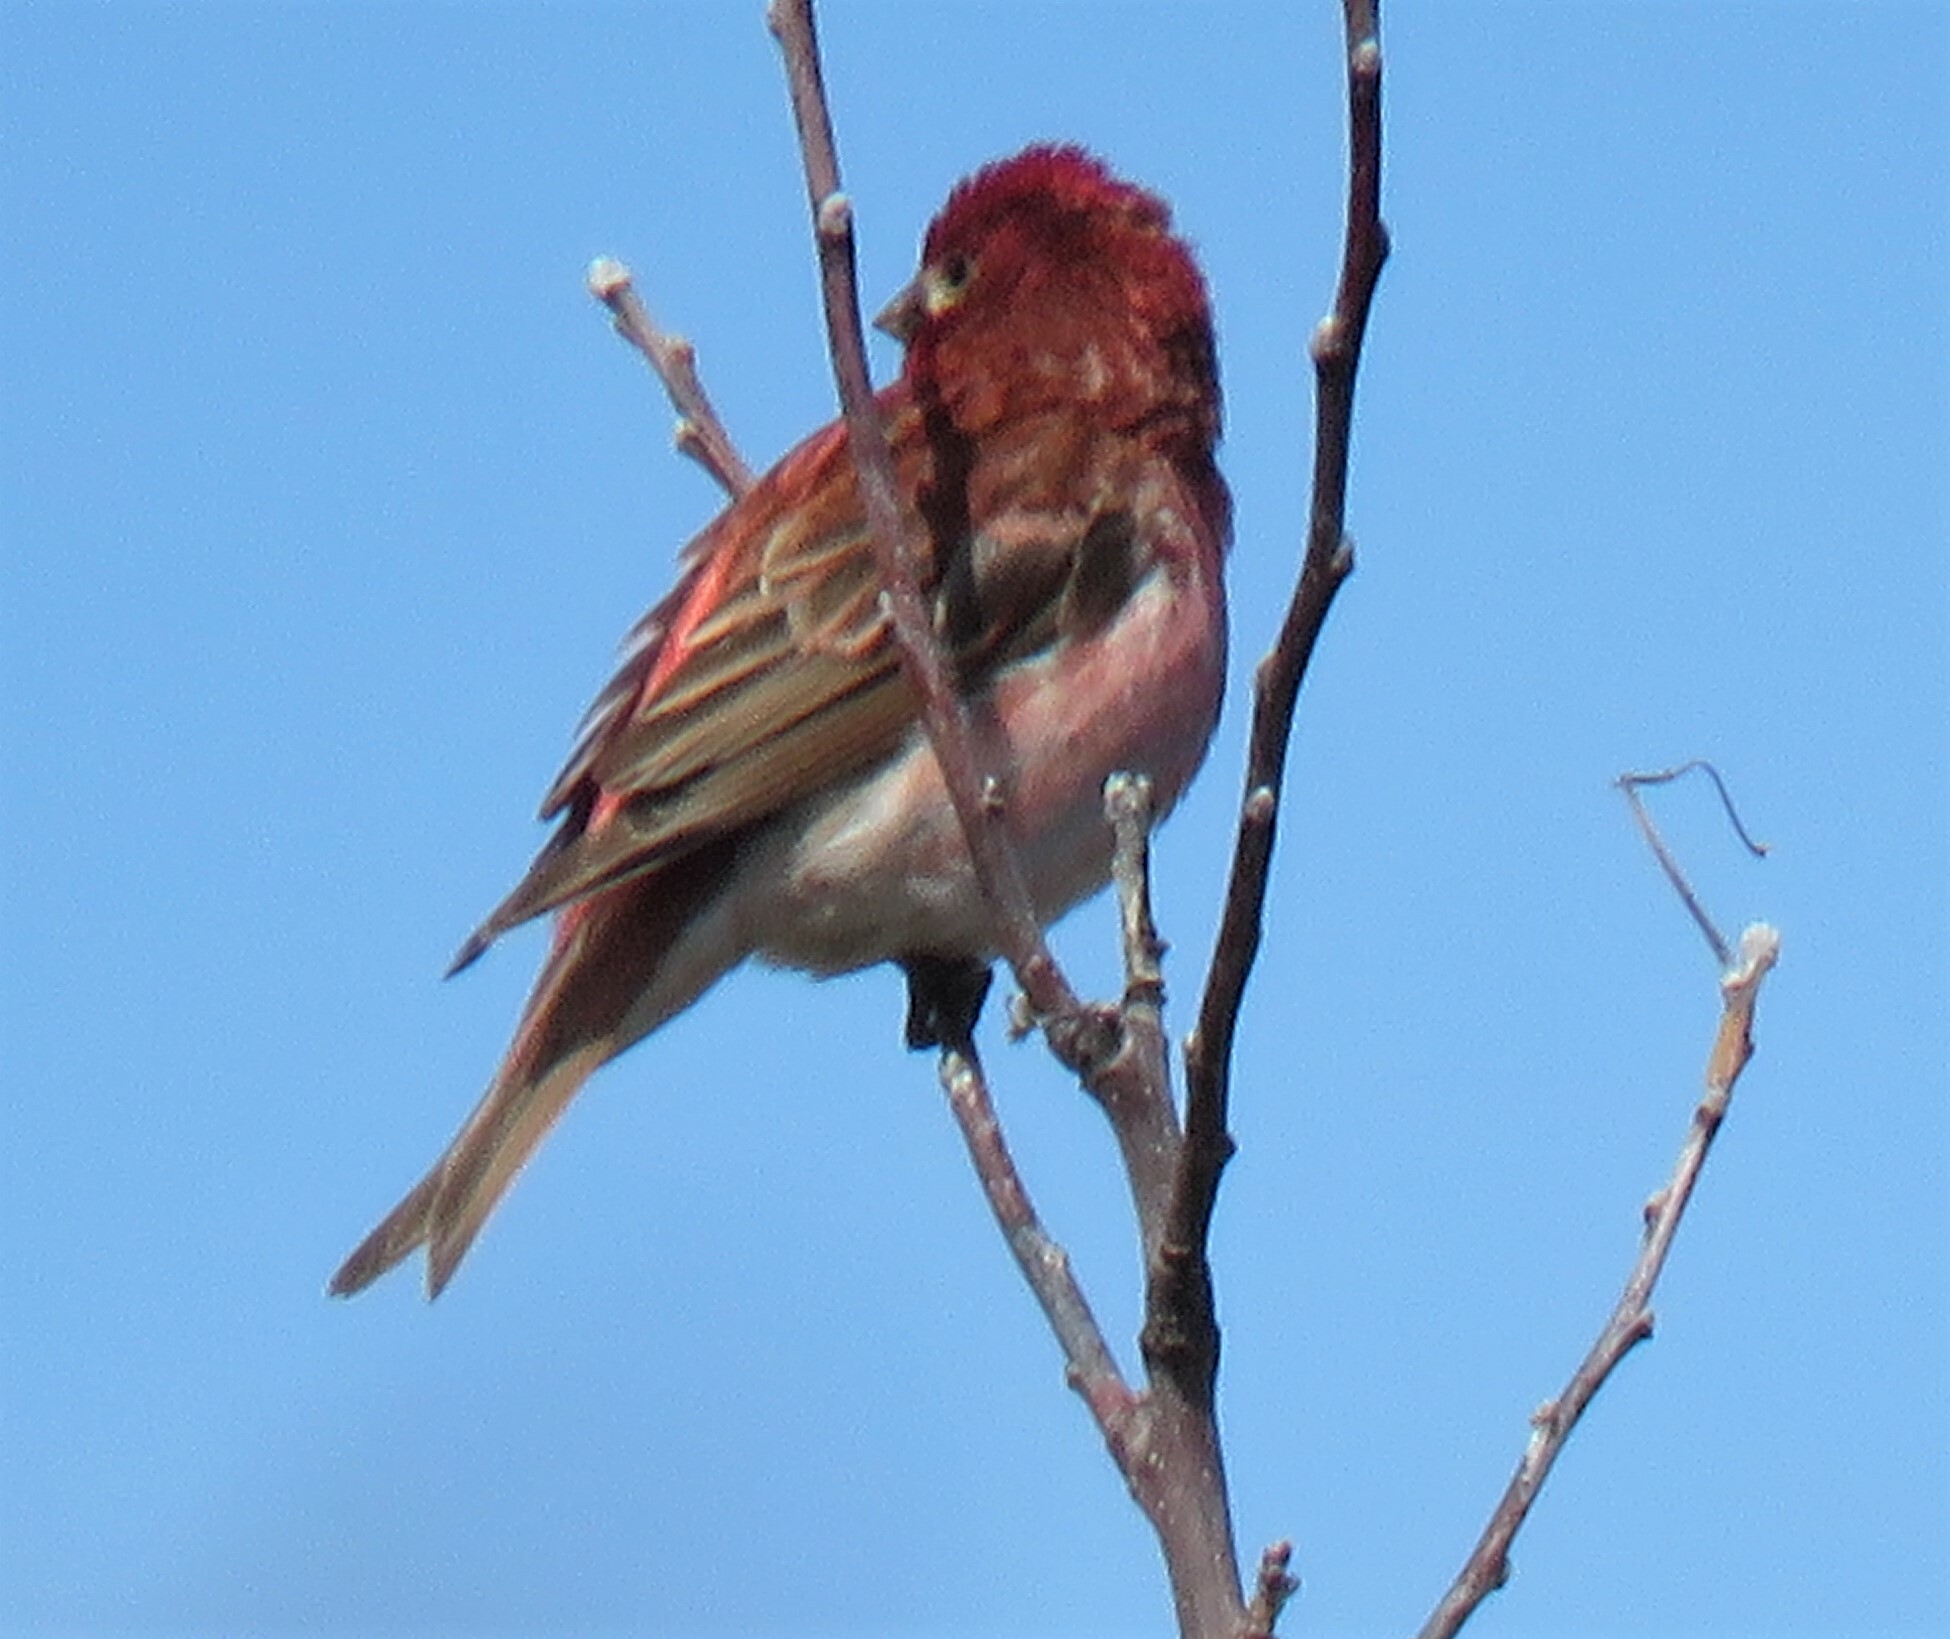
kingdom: Animalia
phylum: Chordata
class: Aves
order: Passeriformes
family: Fringillidae
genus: Haemorhous
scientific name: Haemorhous purpureus
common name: Purple finch
